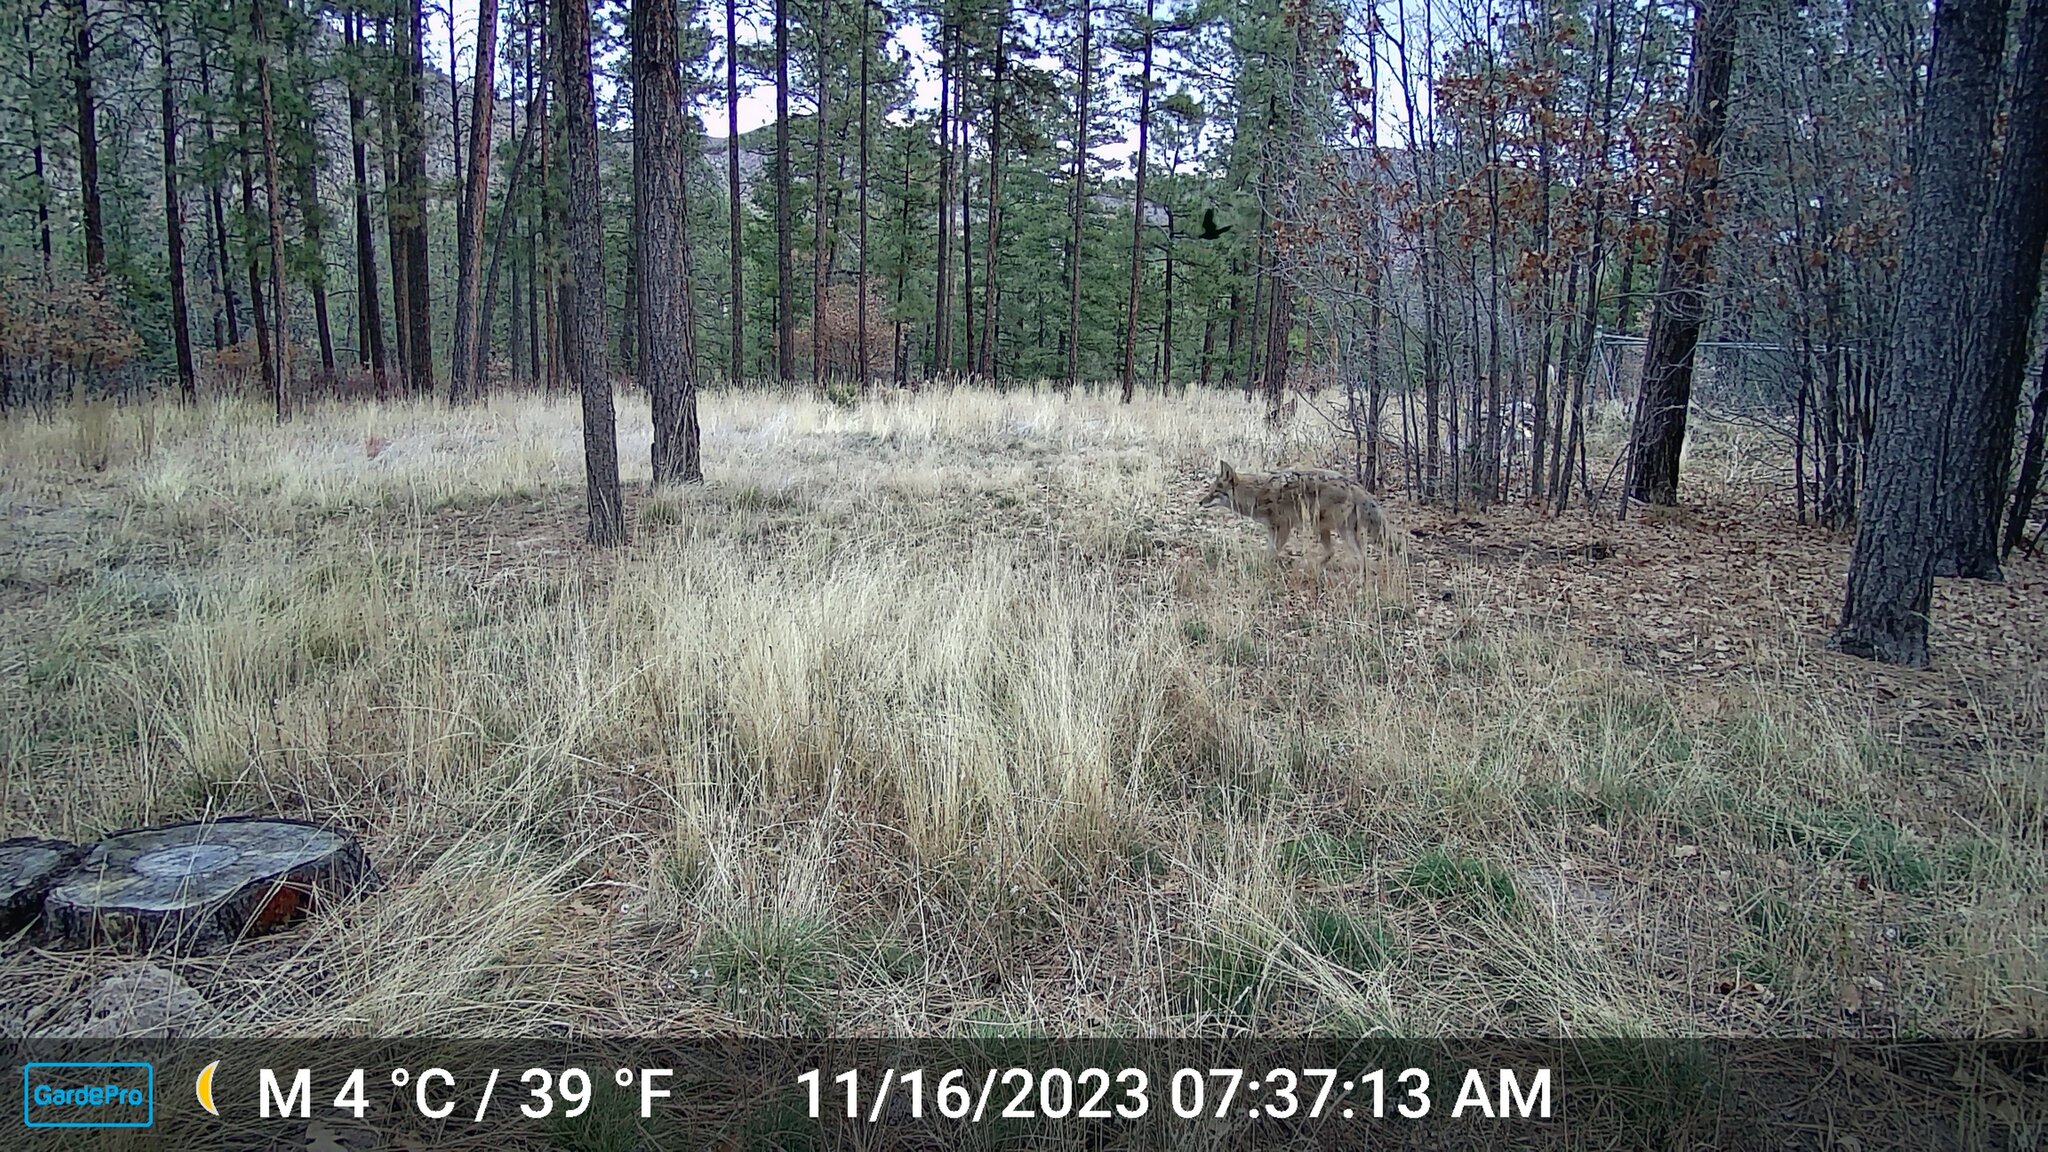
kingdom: Animalia
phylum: Chordata
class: Mammalia
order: Carnivora
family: Canidae
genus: Canis
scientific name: Canis latrans
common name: Coyote
